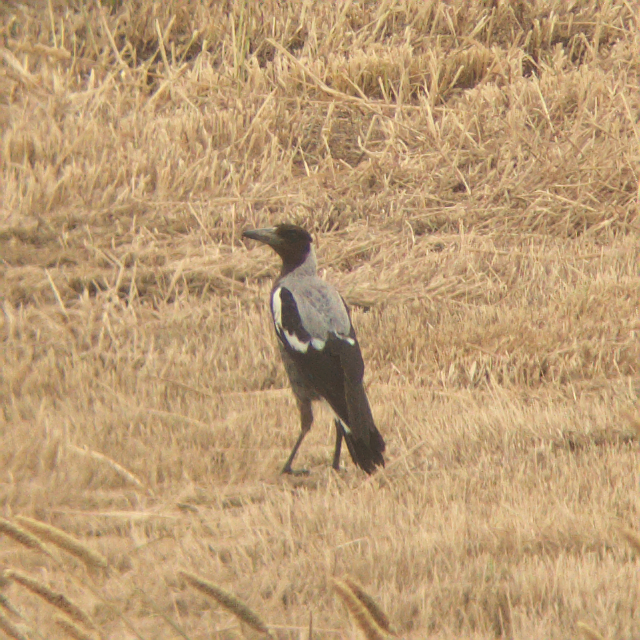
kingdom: Animalia
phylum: Chordata
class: Aves
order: Passeriformes
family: Cracticidae
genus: Gymnorhina
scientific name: Gymnorhina tibicen
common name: Australian magpie
